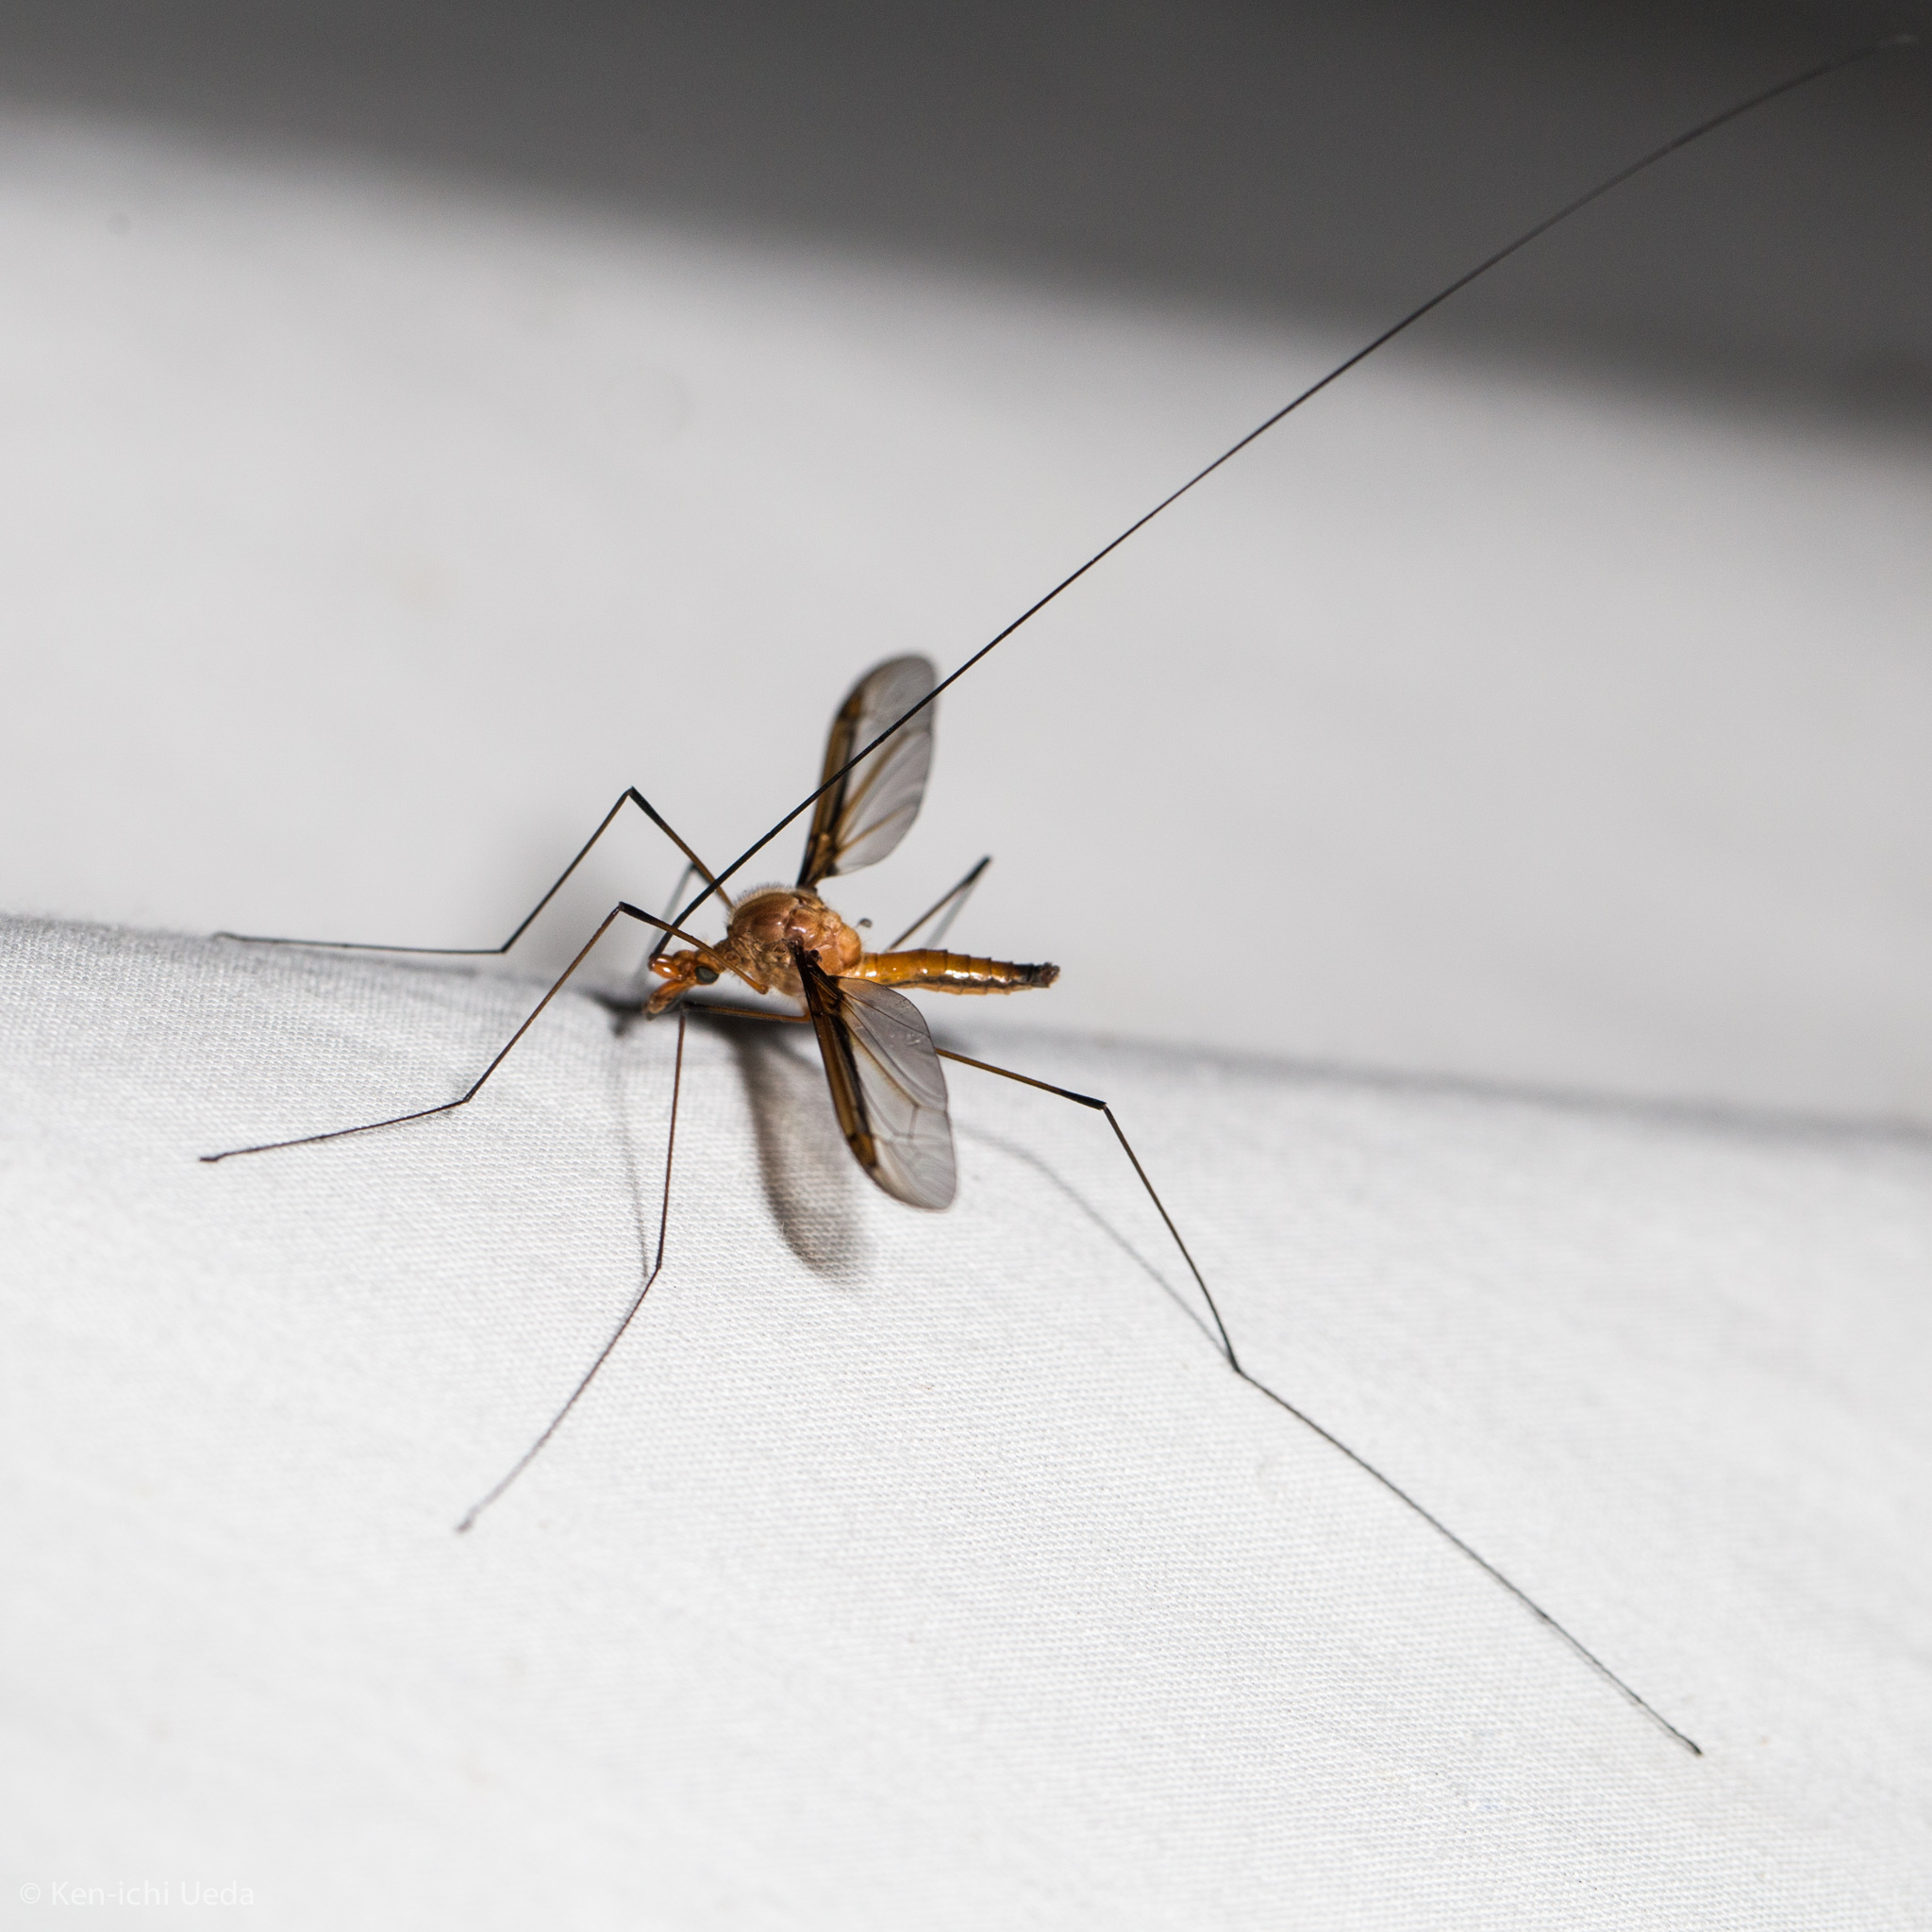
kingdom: Animalia
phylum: Arthropoda
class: Insecta
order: Diptera
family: Tipulidae
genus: Leptotarsus
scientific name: Leptotarsus costalis
